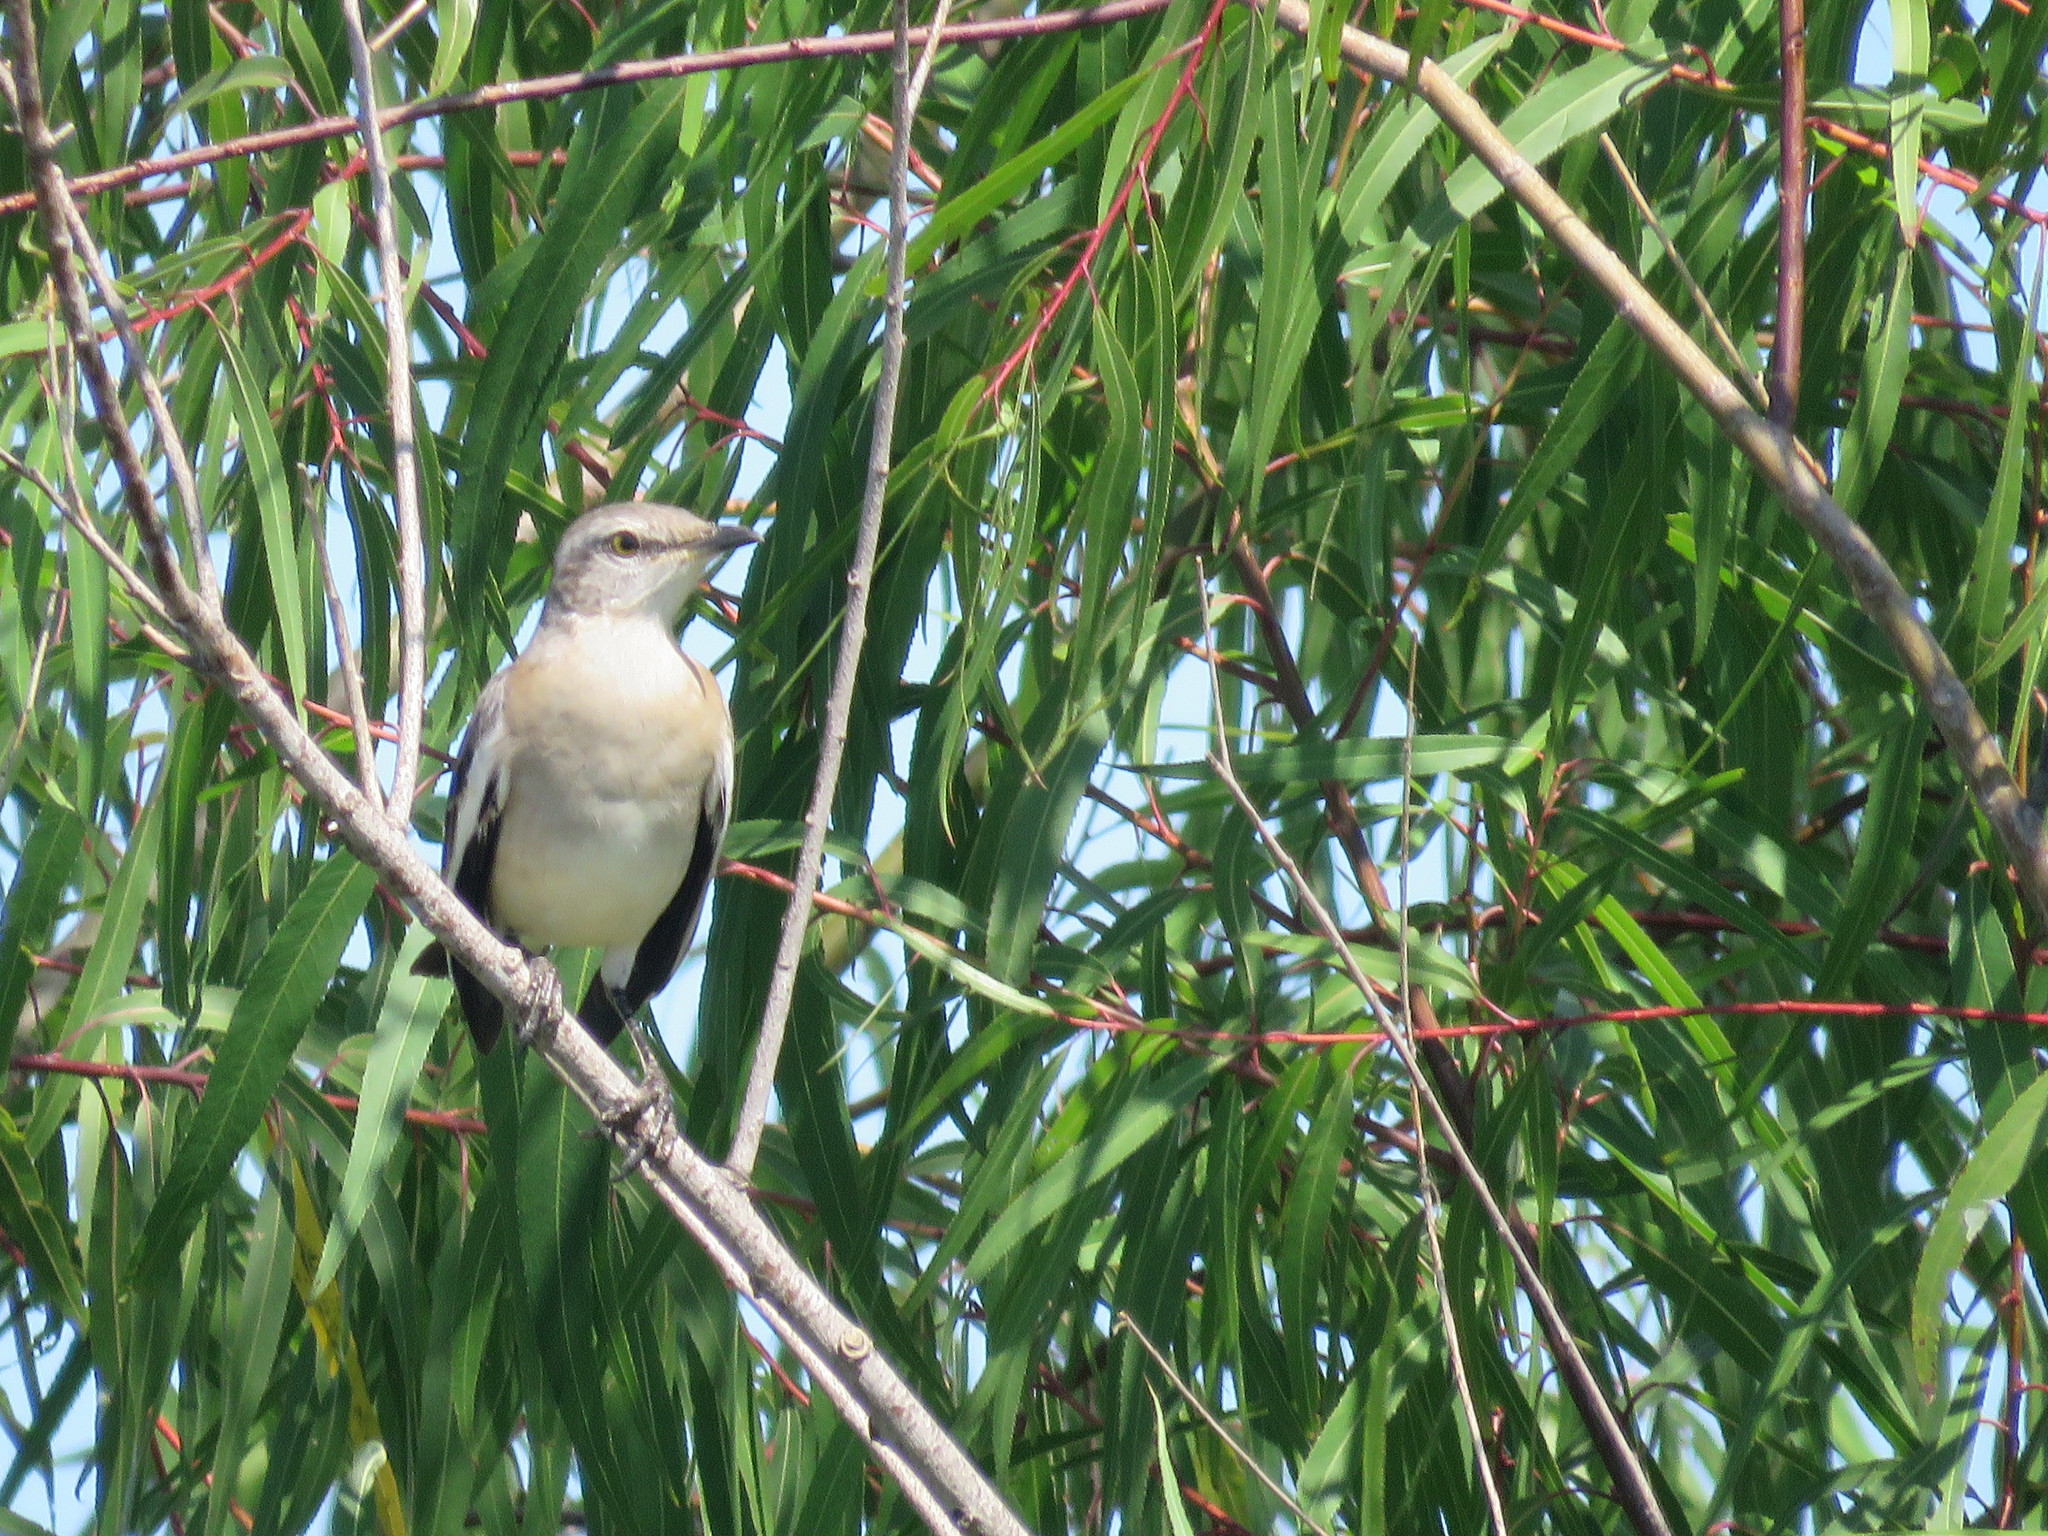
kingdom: Animalia
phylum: Chordata
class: Aves
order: Passeriformes
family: Mimidae
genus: Mimus
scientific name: Mimus triurus
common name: White-banded mockingbird
